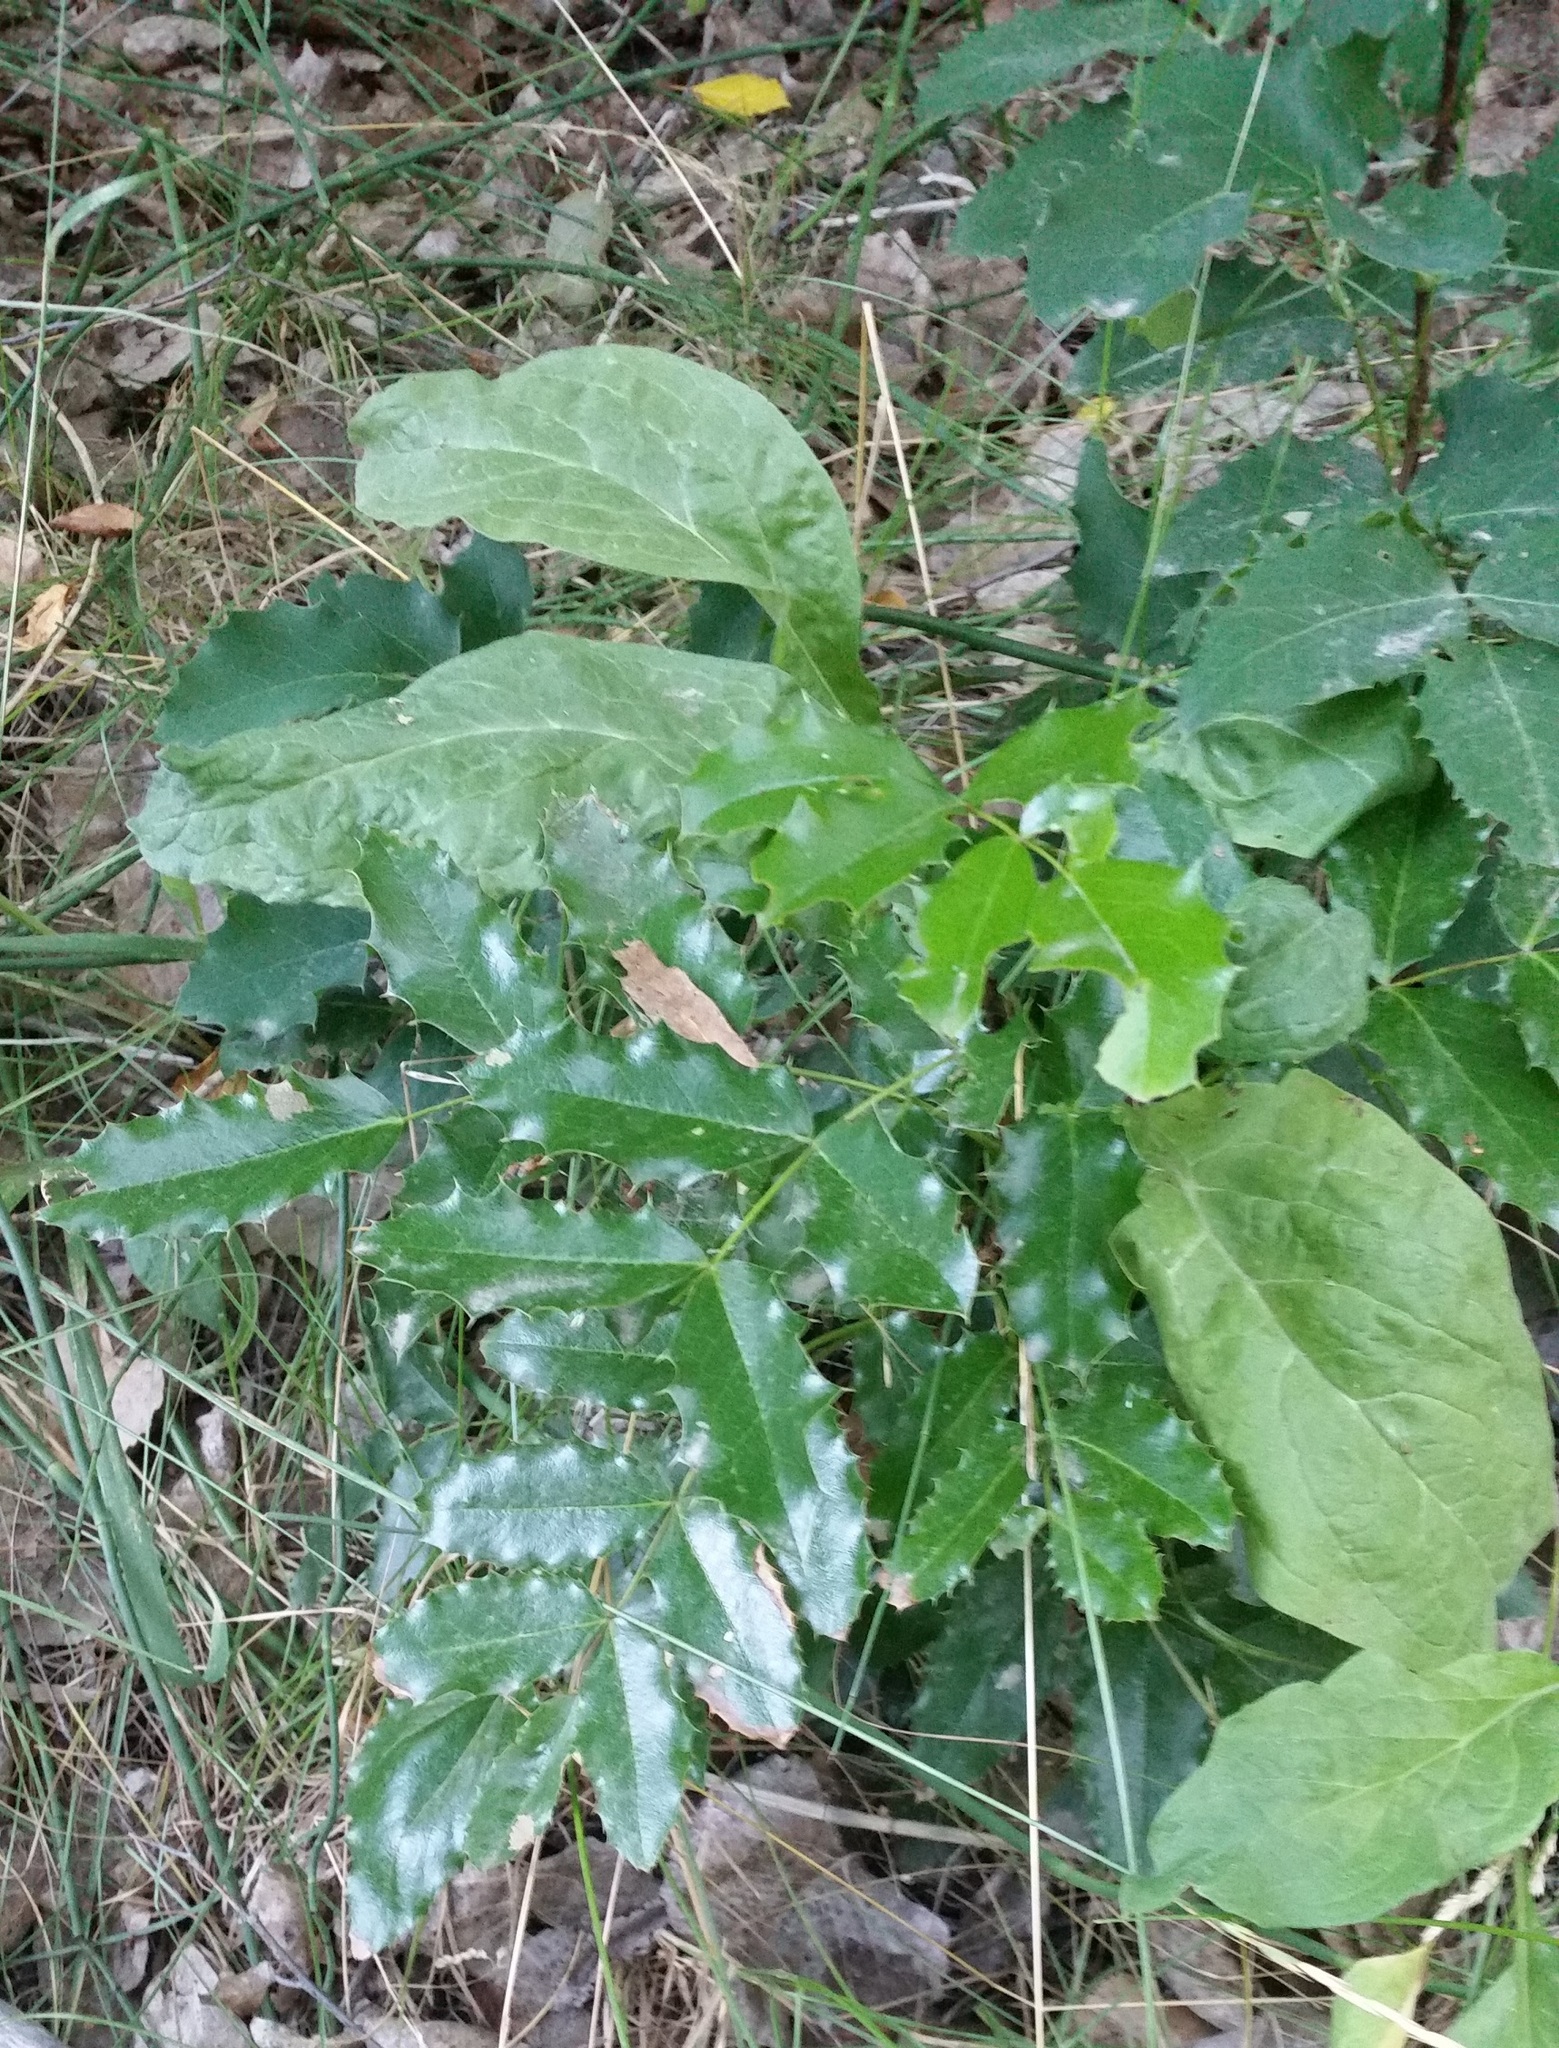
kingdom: Plantae
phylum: Tracheophyta
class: Magnoliopsida
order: Ranunculales
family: Berberidaceae
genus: Mahonia
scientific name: Mahonia aquifolium
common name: Oregon-grape
